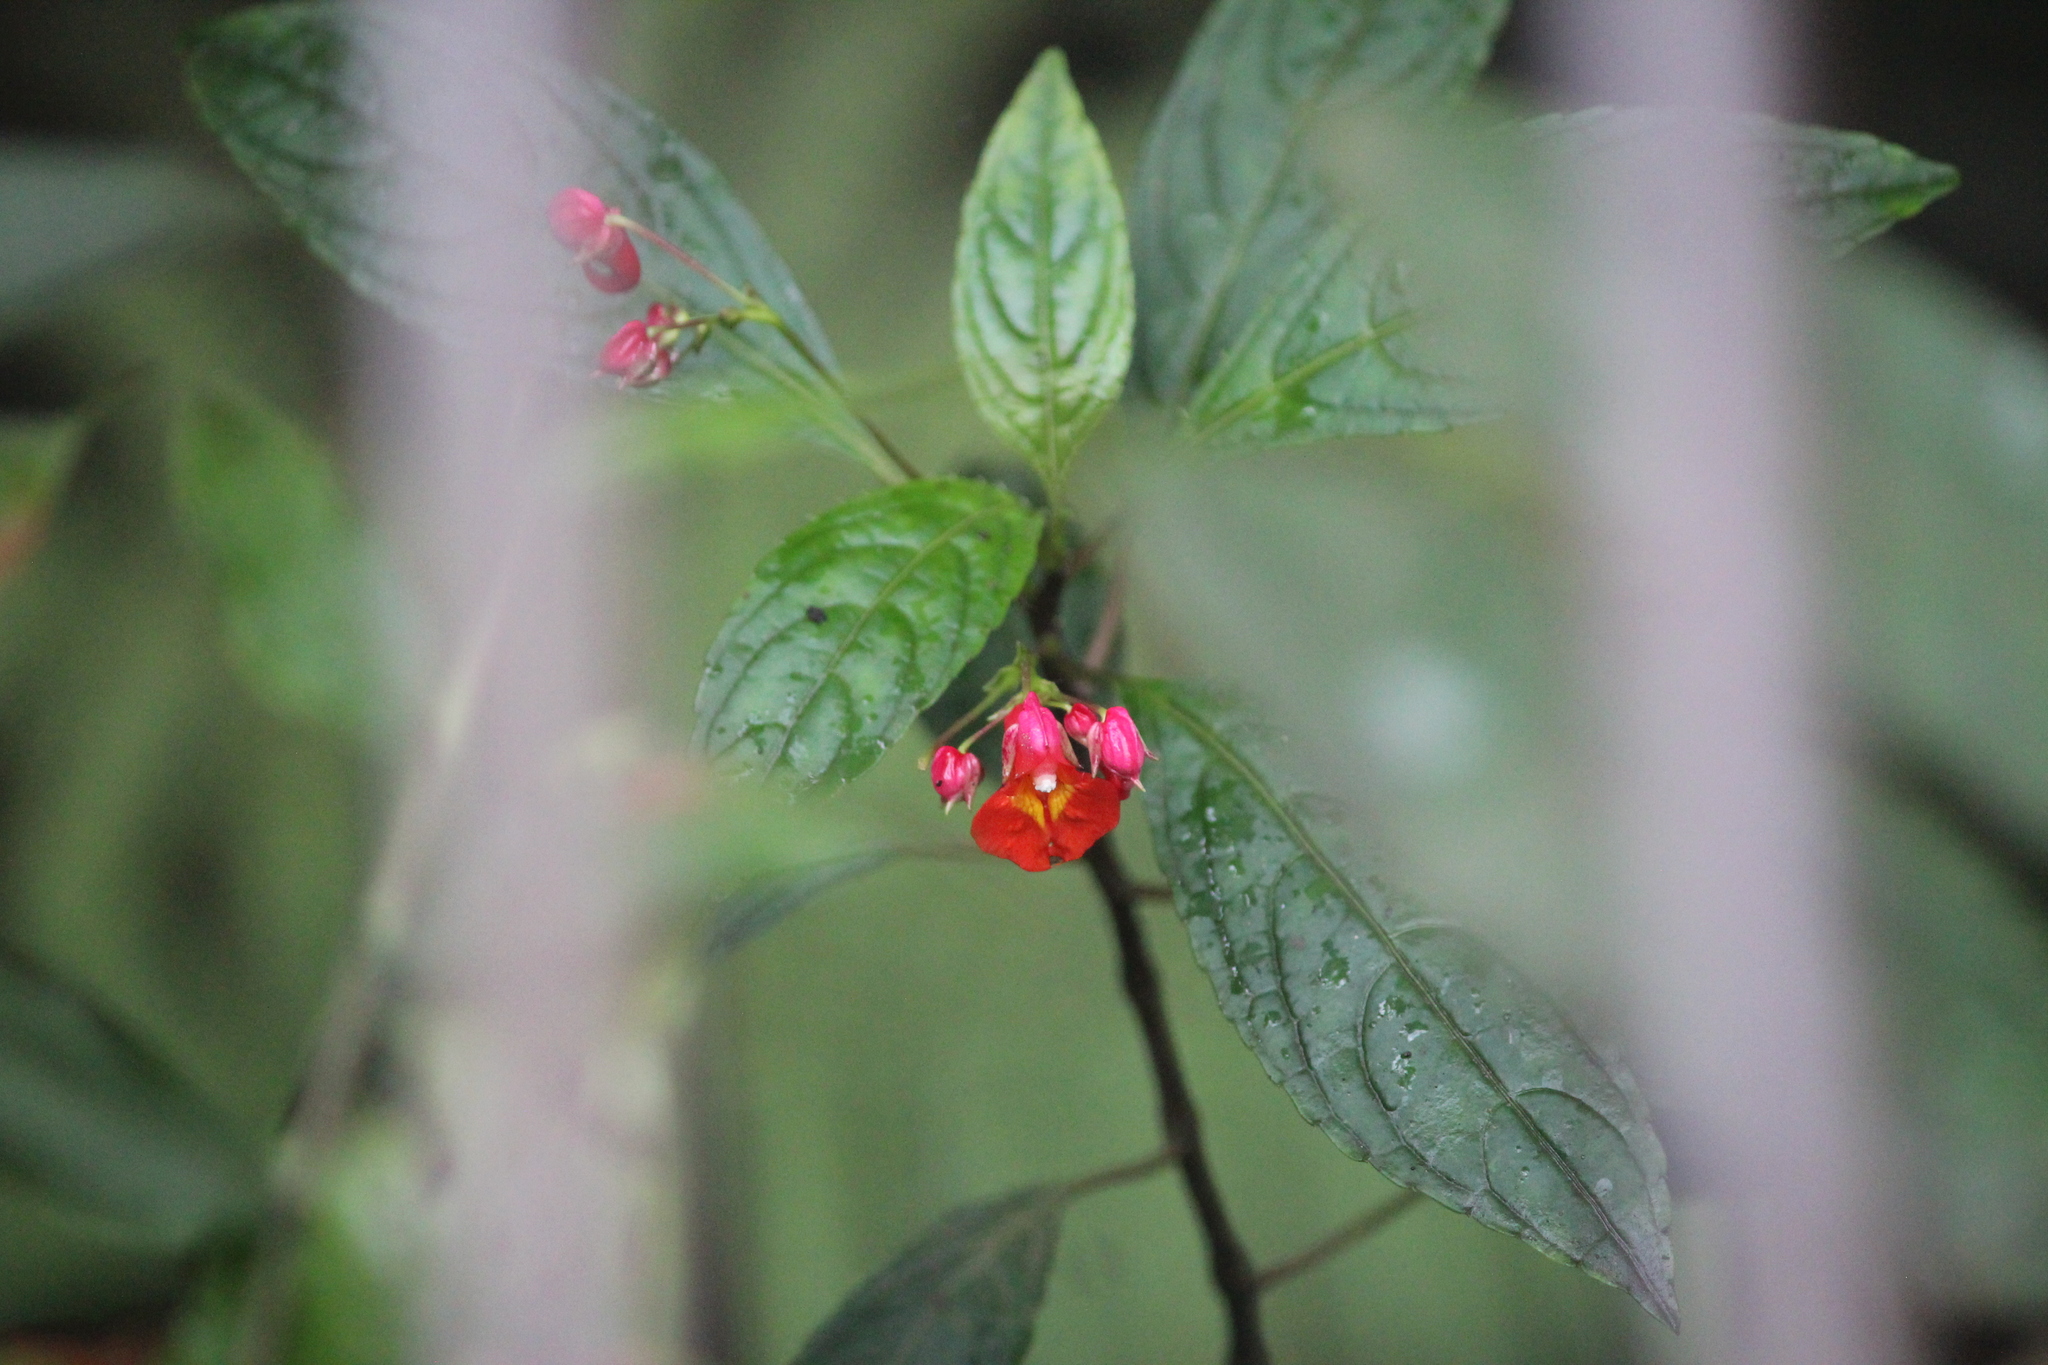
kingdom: Plantae
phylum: Tracheophyta
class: Magnoliopsida
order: Ericales
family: Balsaminaceae
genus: Impatiens
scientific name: Impatiens phoenicea
